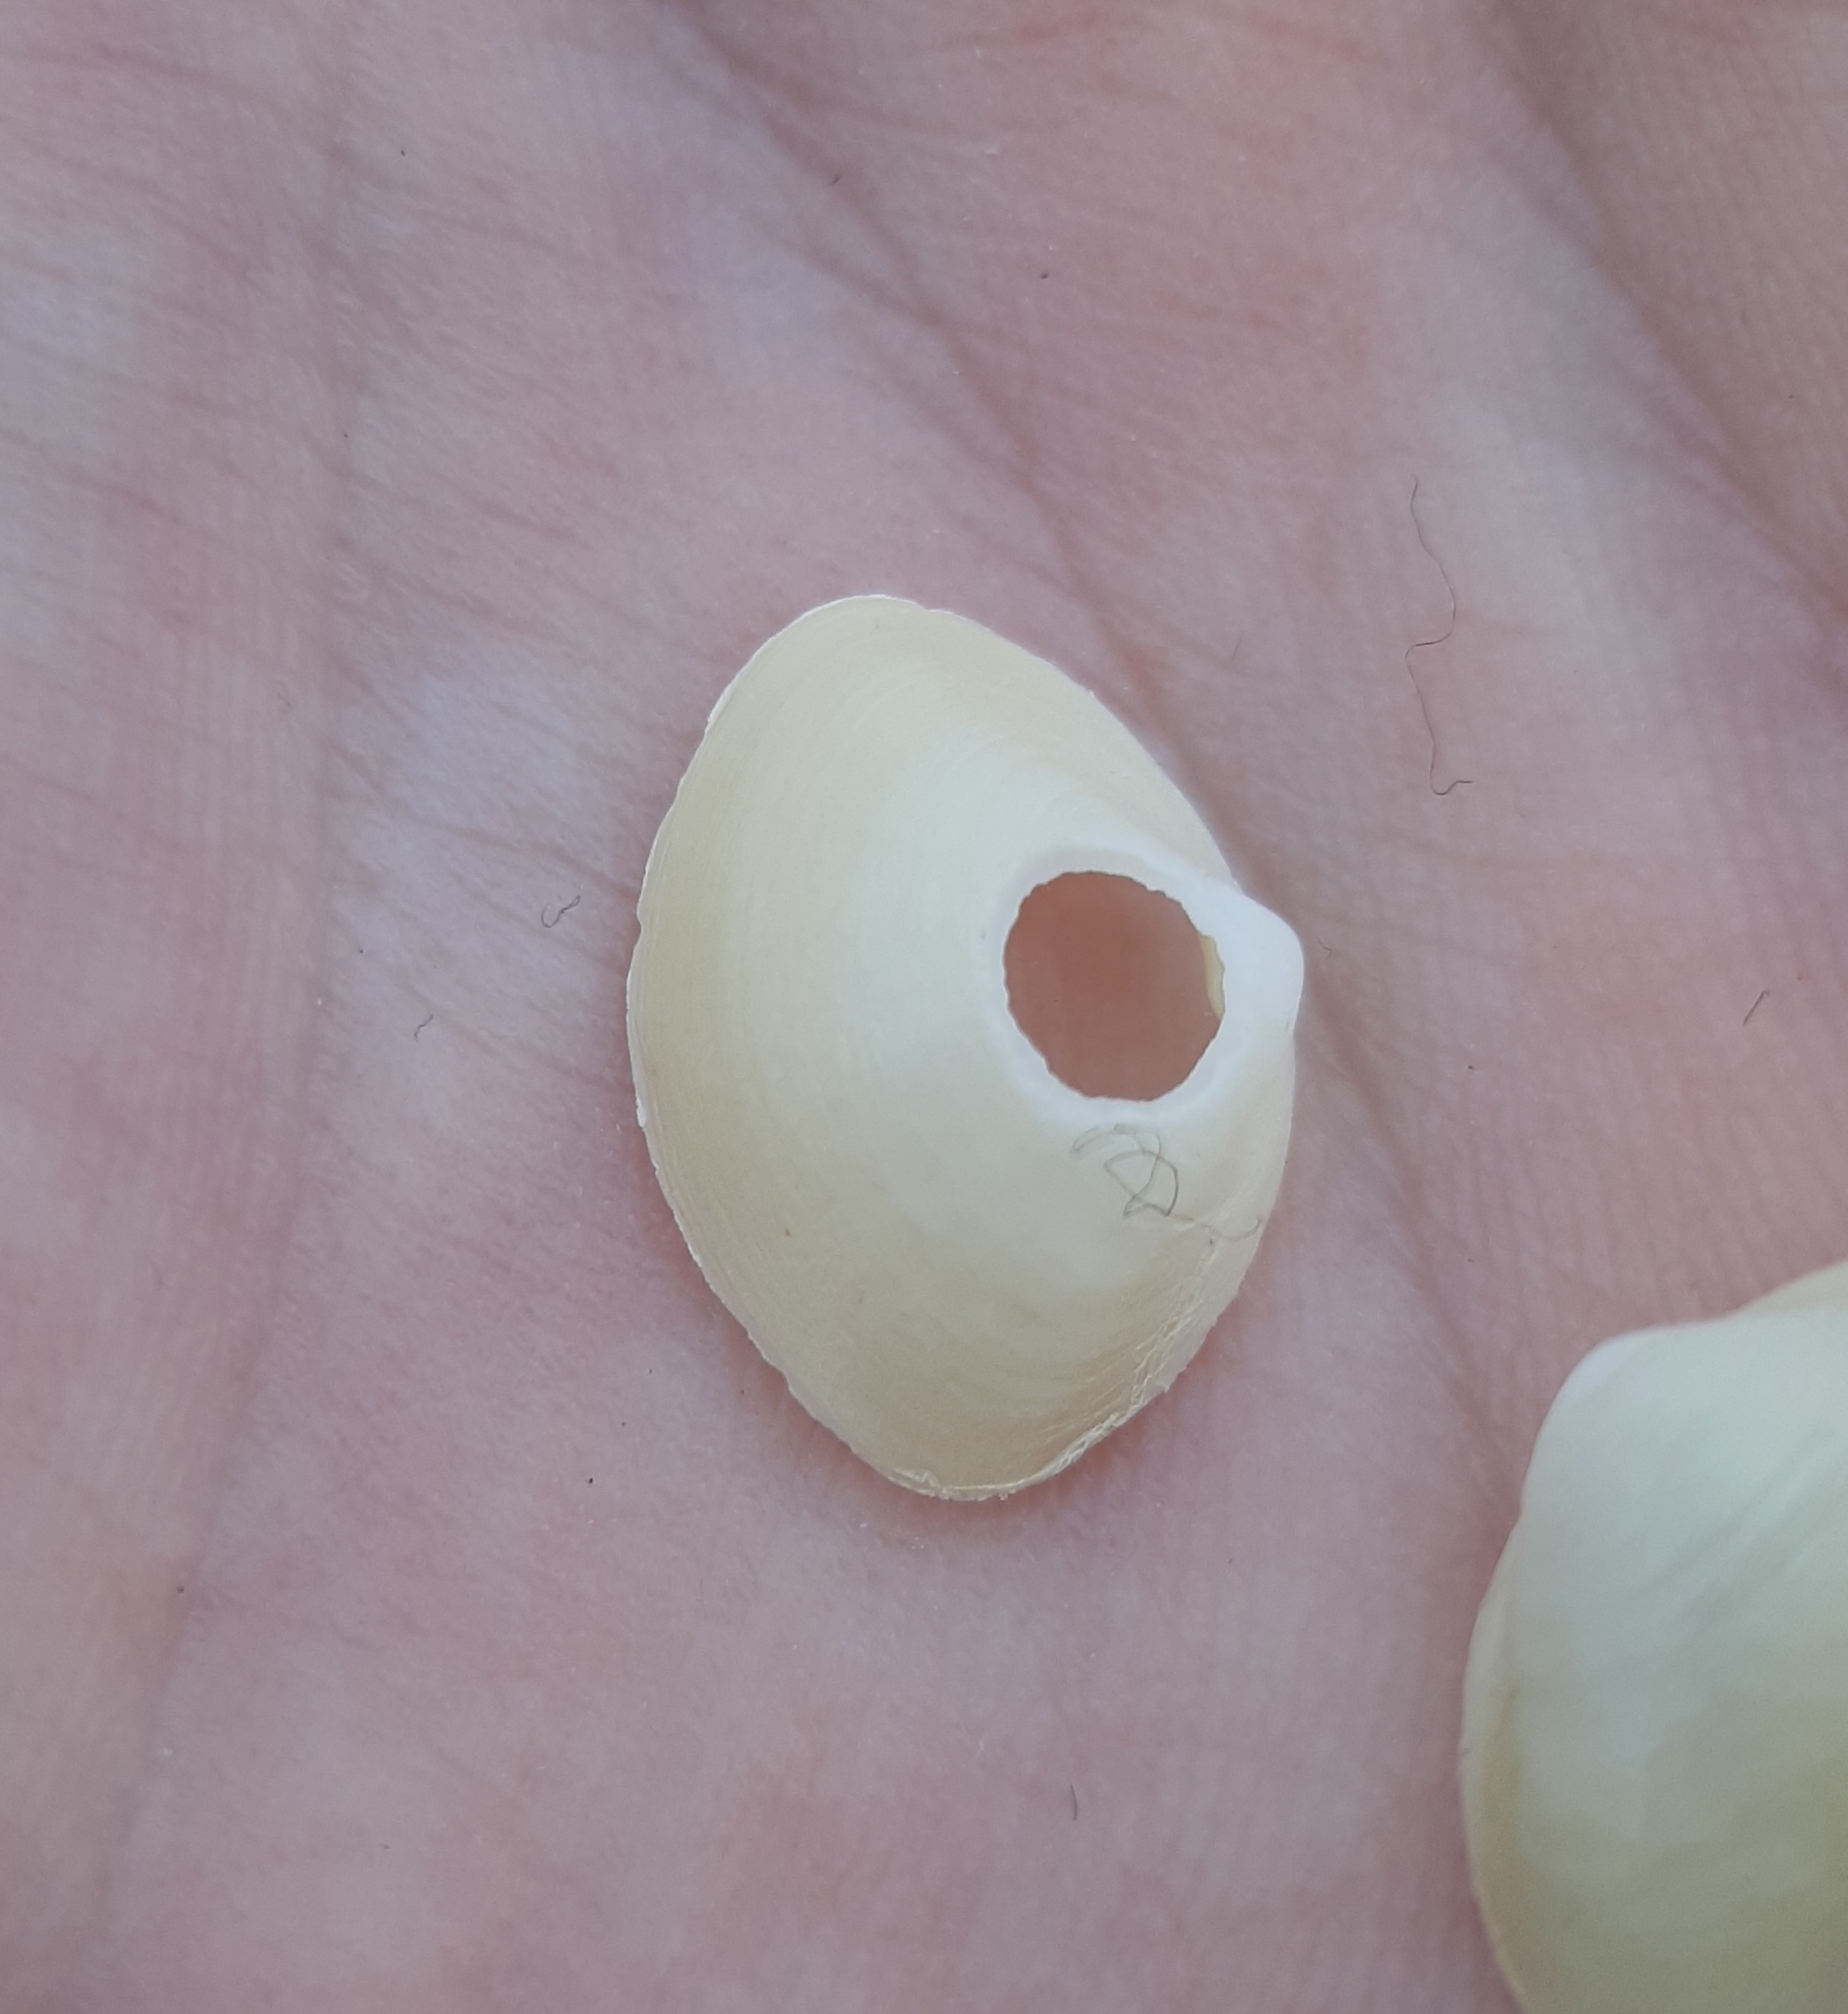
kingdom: Animalia
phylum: Mollusca
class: Bivalvia
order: Venerida
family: Mactridae
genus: Spisula
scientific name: Spisula solidissima
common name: Atlantic surf clam
